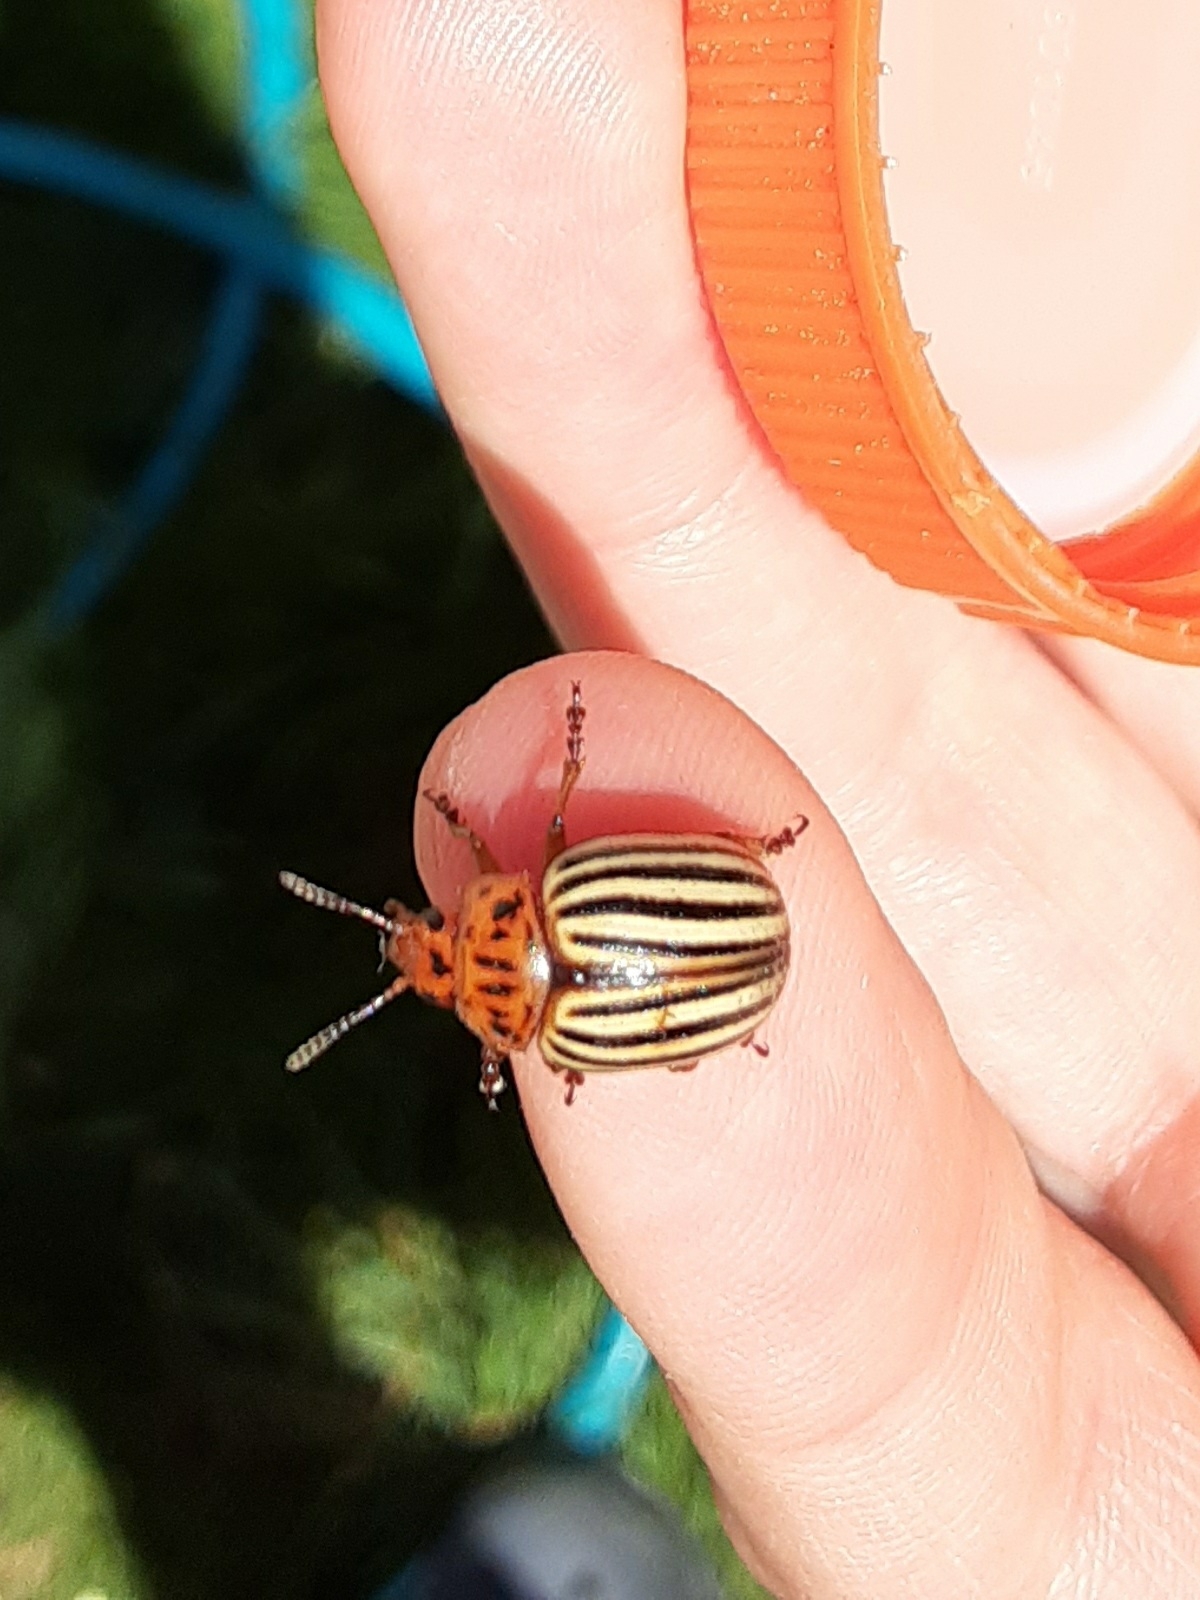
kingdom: Animalia
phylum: Arthropoda
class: Insecta
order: Coleoptera
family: Chrysomelidae
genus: Leptinotarsa
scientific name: Leptinotarsa decemlineata
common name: Colorado potato beetle
